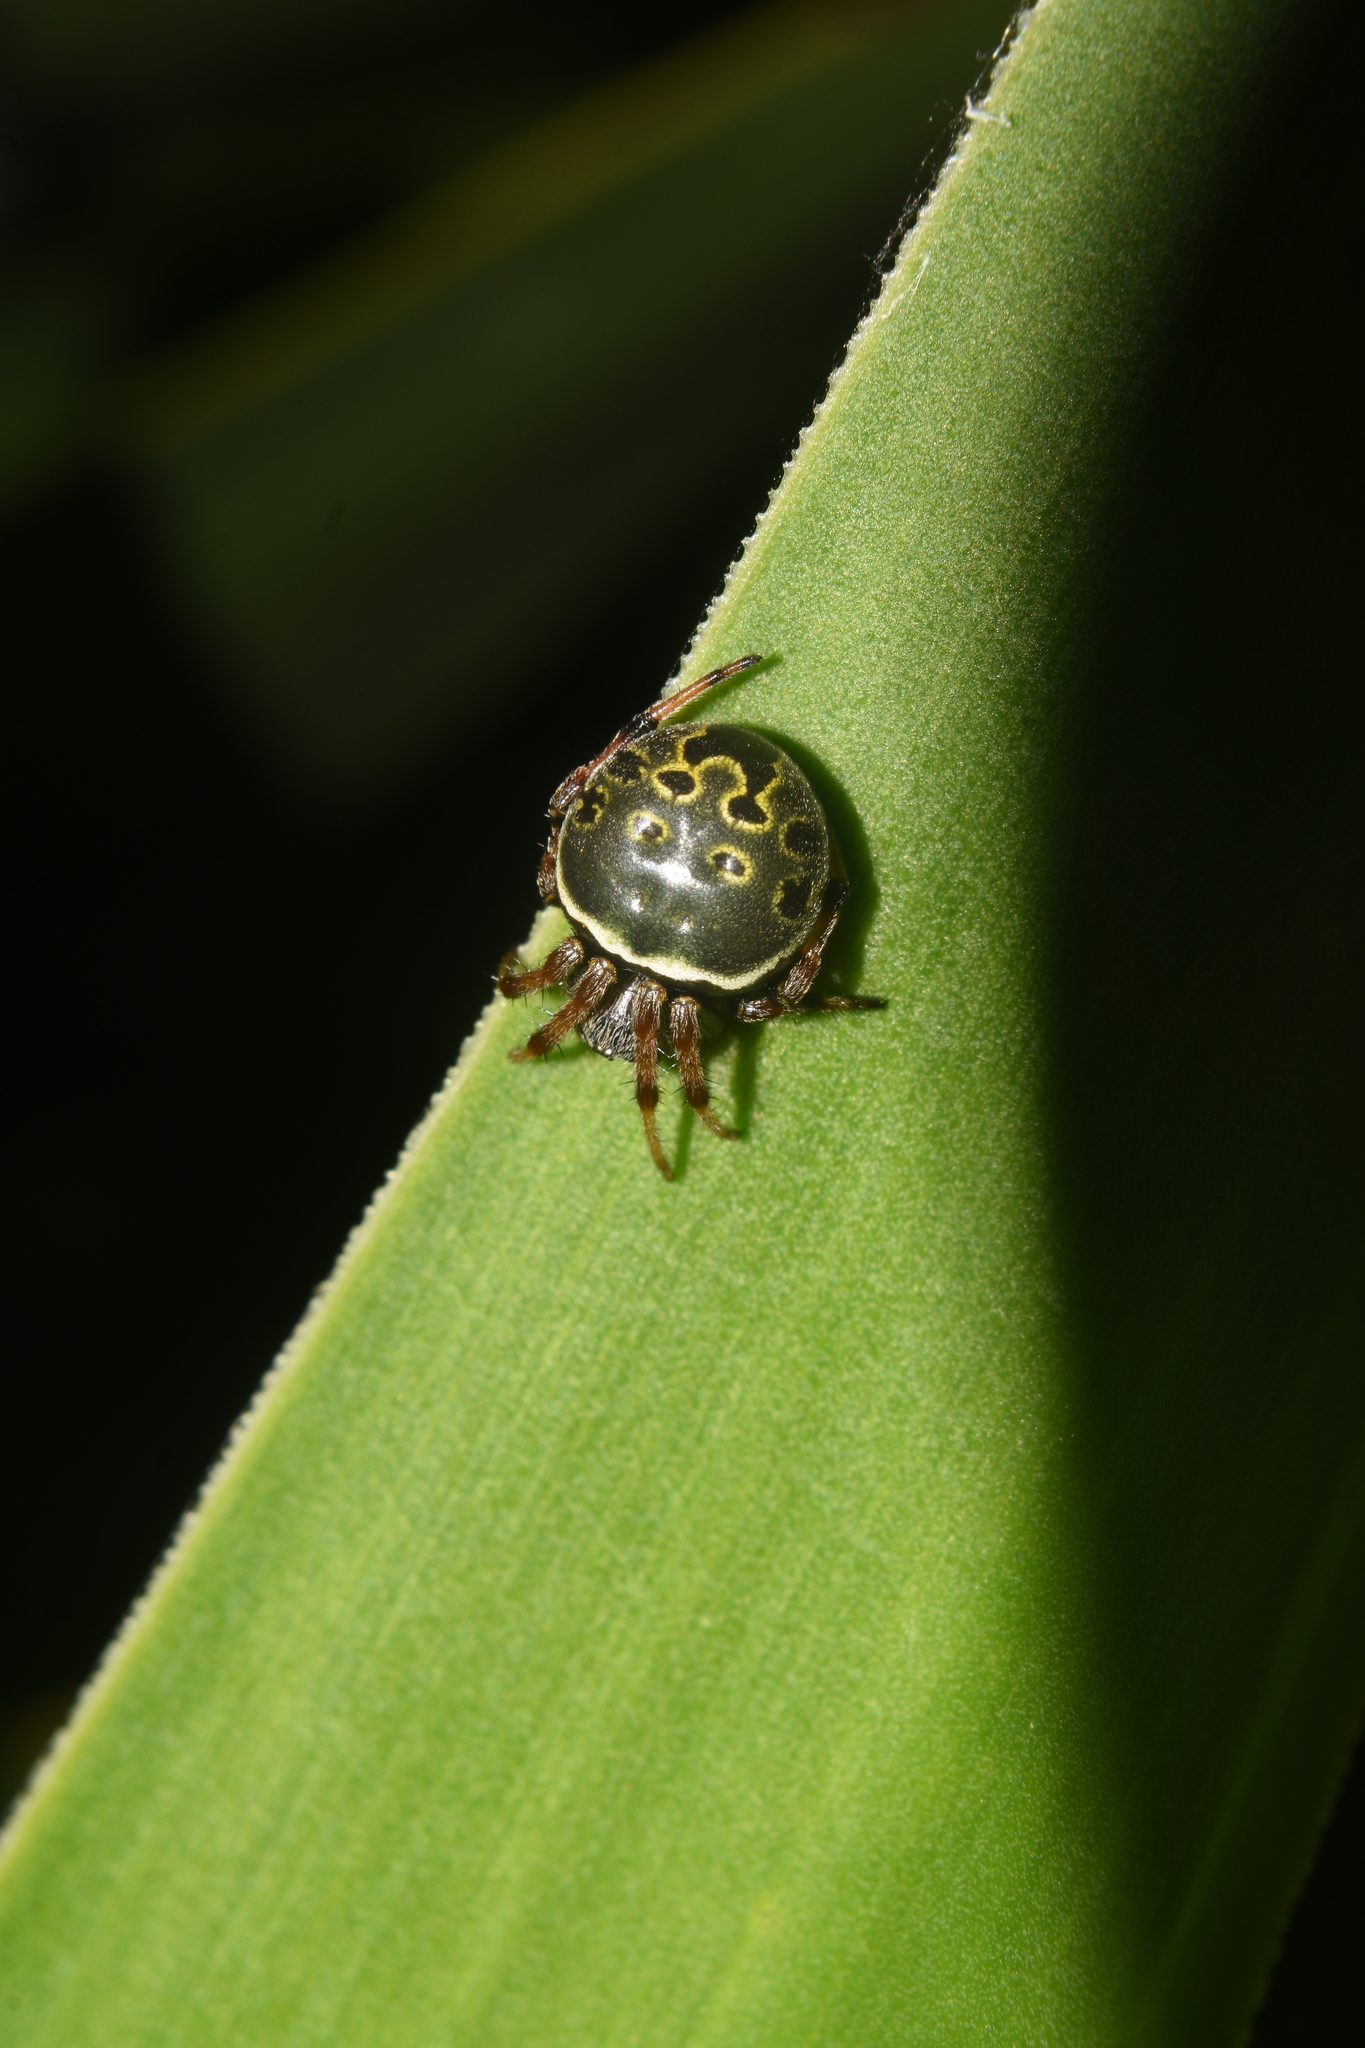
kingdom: Animalia
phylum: Arthropoda
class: Arachnida
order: Araneae
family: Araneidae
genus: Araneus
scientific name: Araneus granadensis
